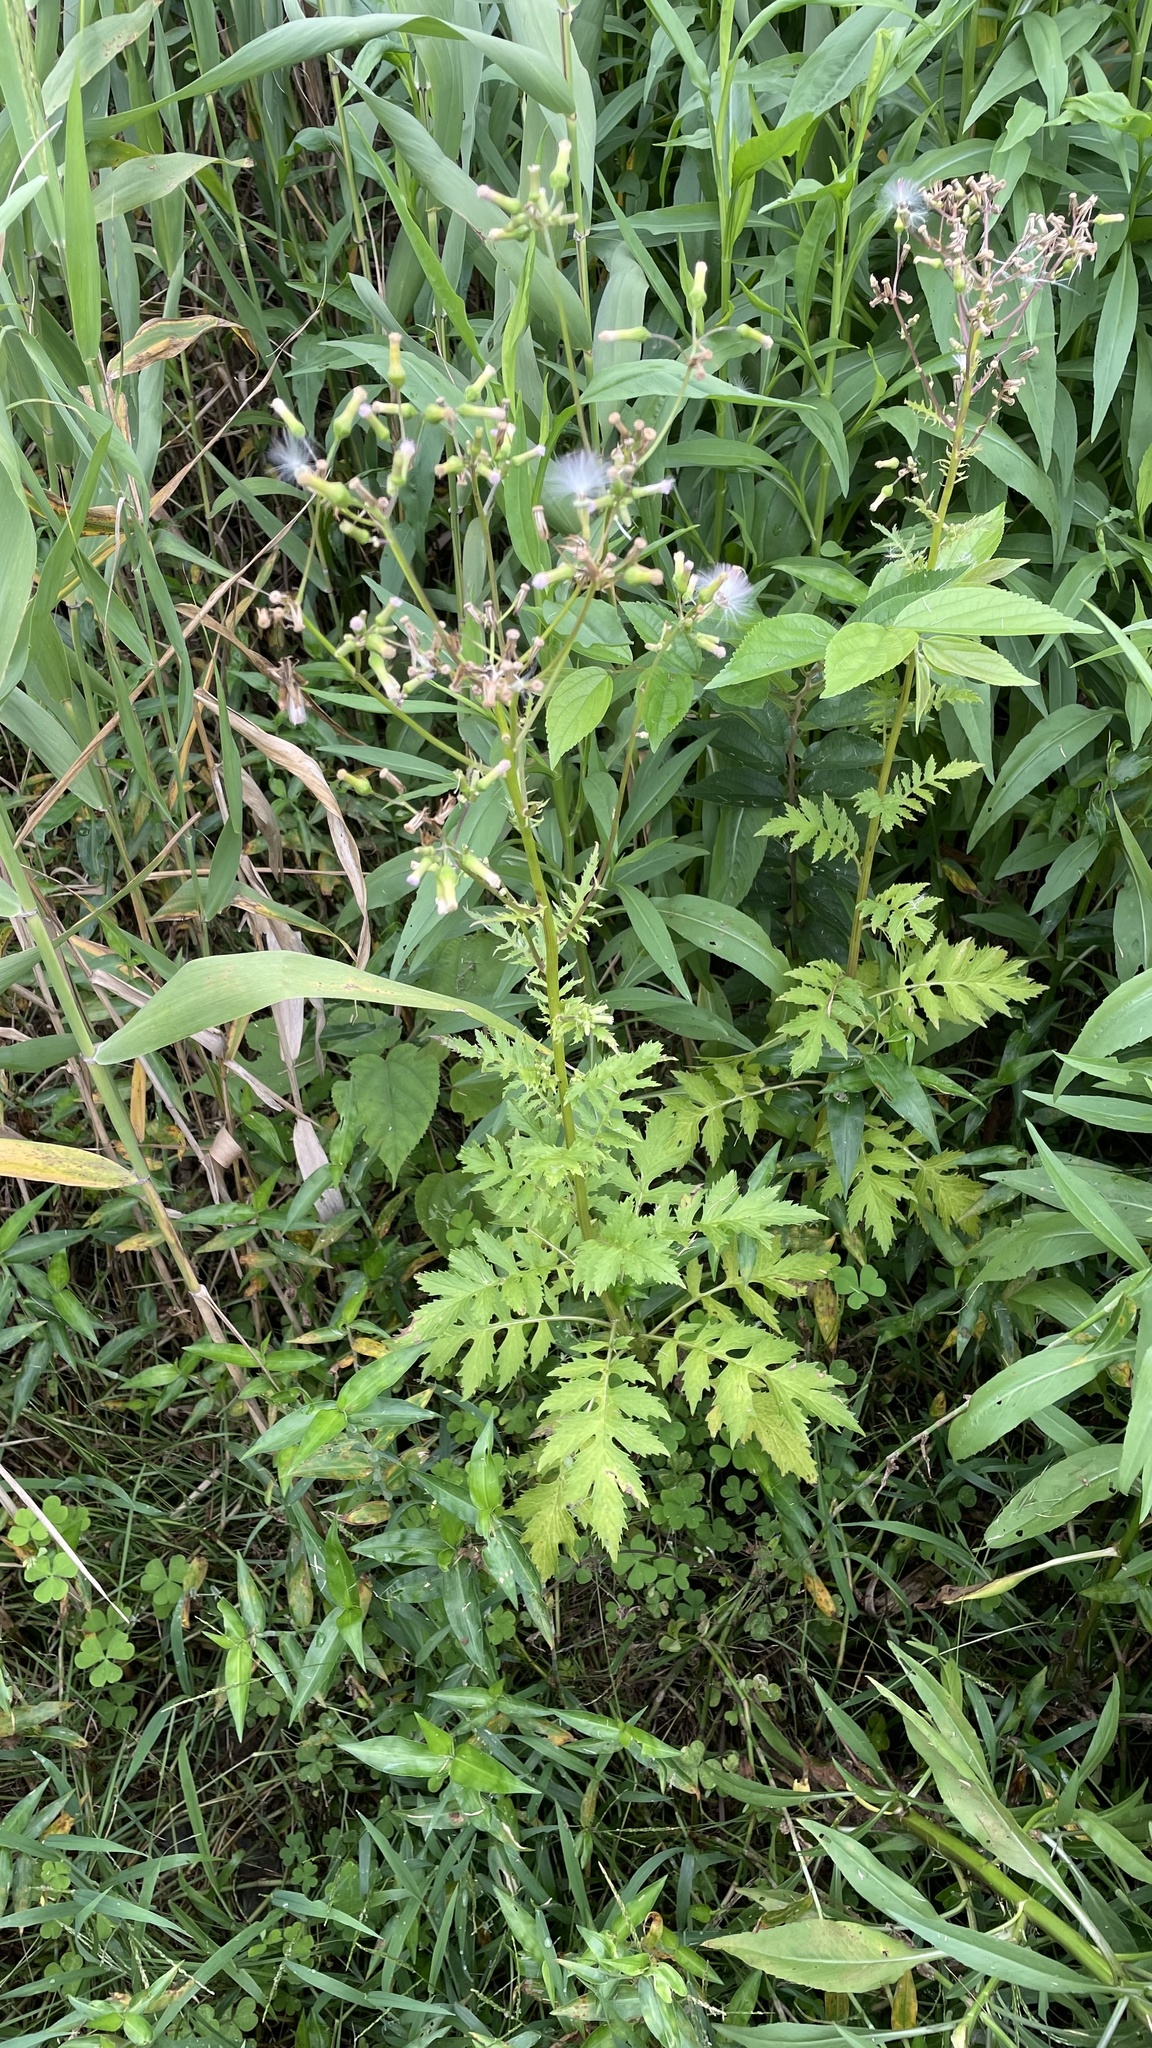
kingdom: Plantae
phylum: Tracheophyta
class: Magnoliopsida
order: Asterales
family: Asteraceae
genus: Erechtites
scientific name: Erechtites valerianifolius
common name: Tropical burnweed
